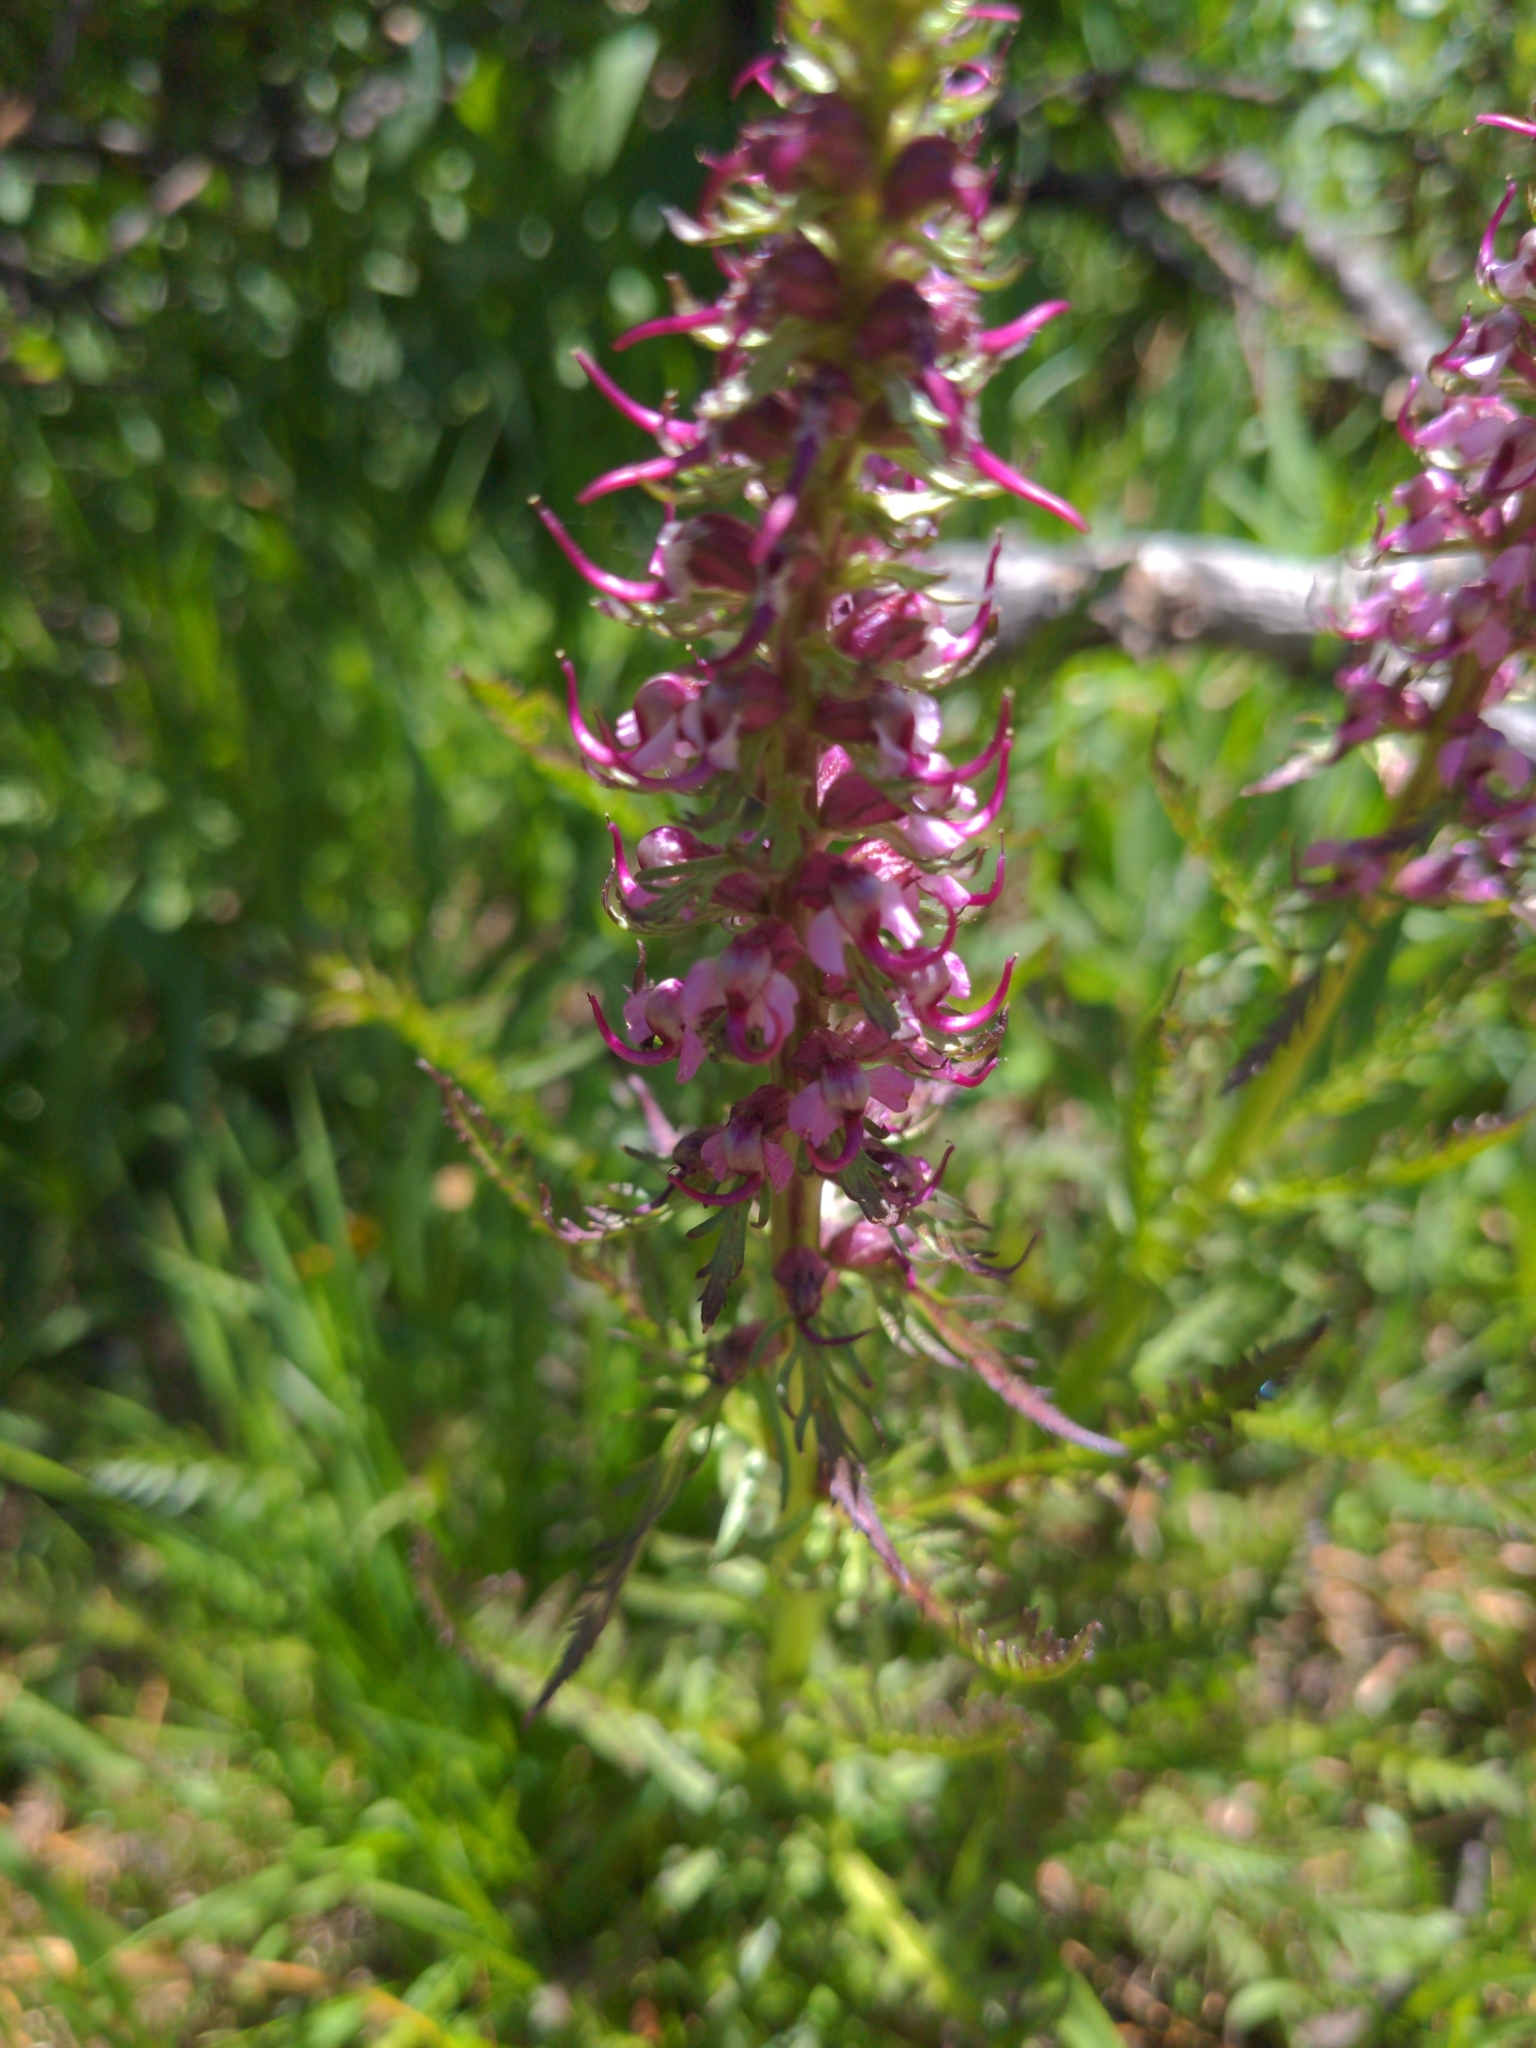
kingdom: Plantae
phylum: Tracheophyta
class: Magnoliopsida
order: Lamiales
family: Orobanchaceae
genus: Pedicularis
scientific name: Pedicularis groenlandica
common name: Elephant's-head
